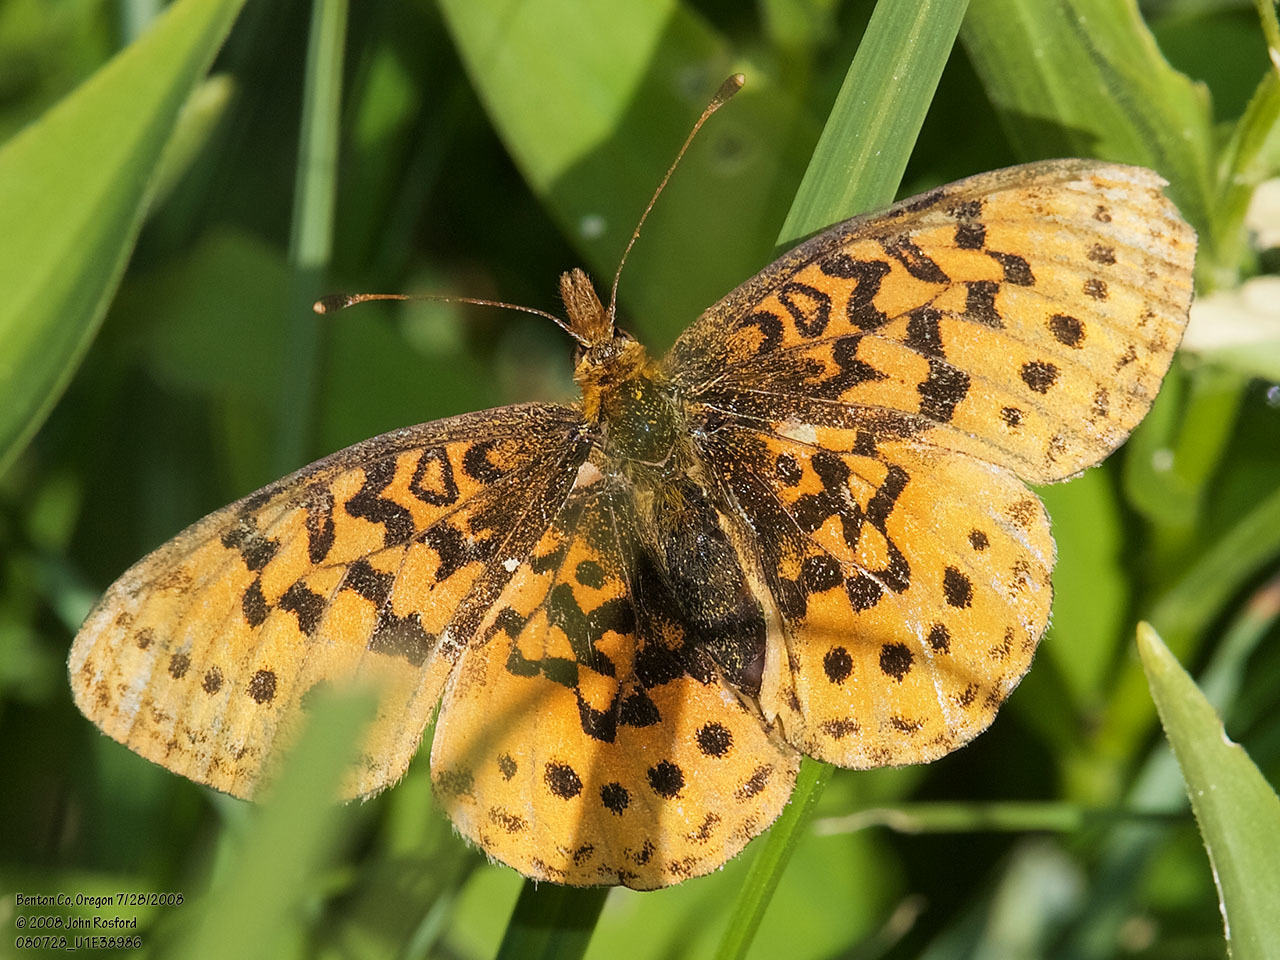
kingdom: Animalia
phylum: Arthropoda
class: Insecta
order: Lepidoptera
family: Nymphalidae
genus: Boloria
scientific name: Boloria epithore
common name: Pacific fritillary
